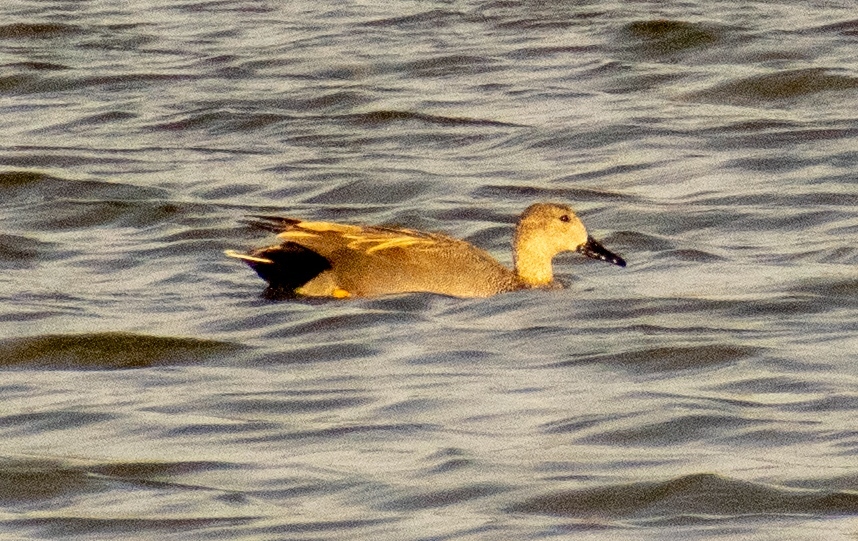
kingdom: Animalia
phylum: Chordata
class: Aves
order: Anseriformes
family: Anatidae
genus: Mareca
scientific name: Mareca strepera
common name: Gadwall
